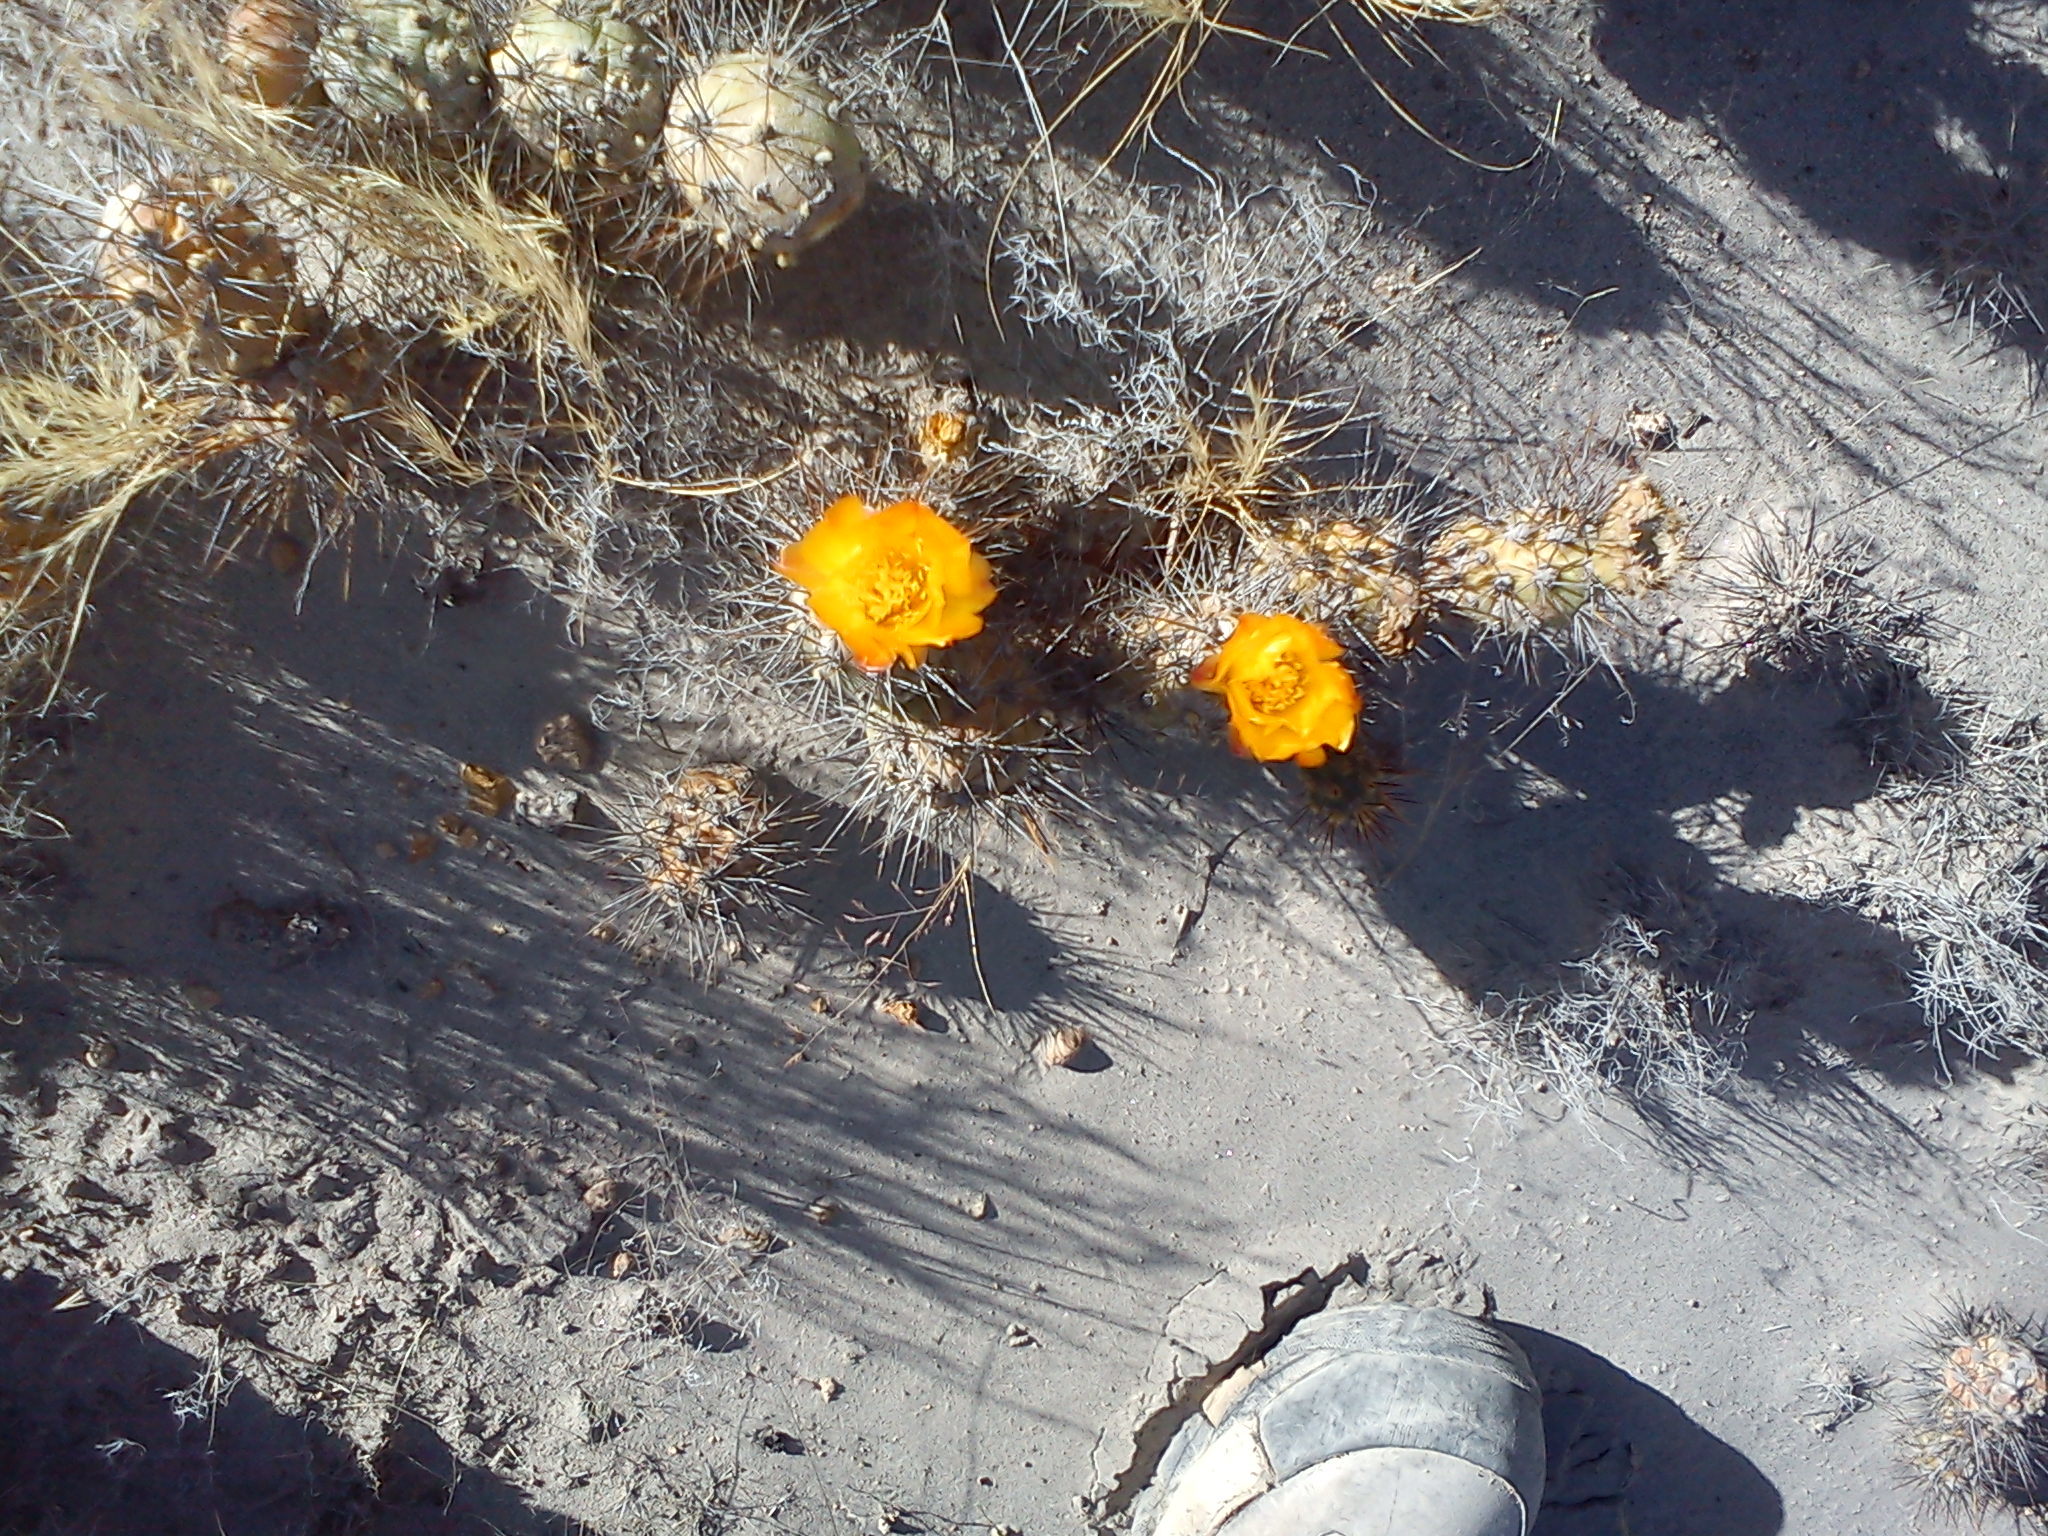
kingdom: Plantae
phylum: Tracheophyta
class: Magnoliopsida
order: Caryophyllales
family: Cactaceae
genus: Cumulopuntia
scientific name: Cumulopuntia leucophaea
